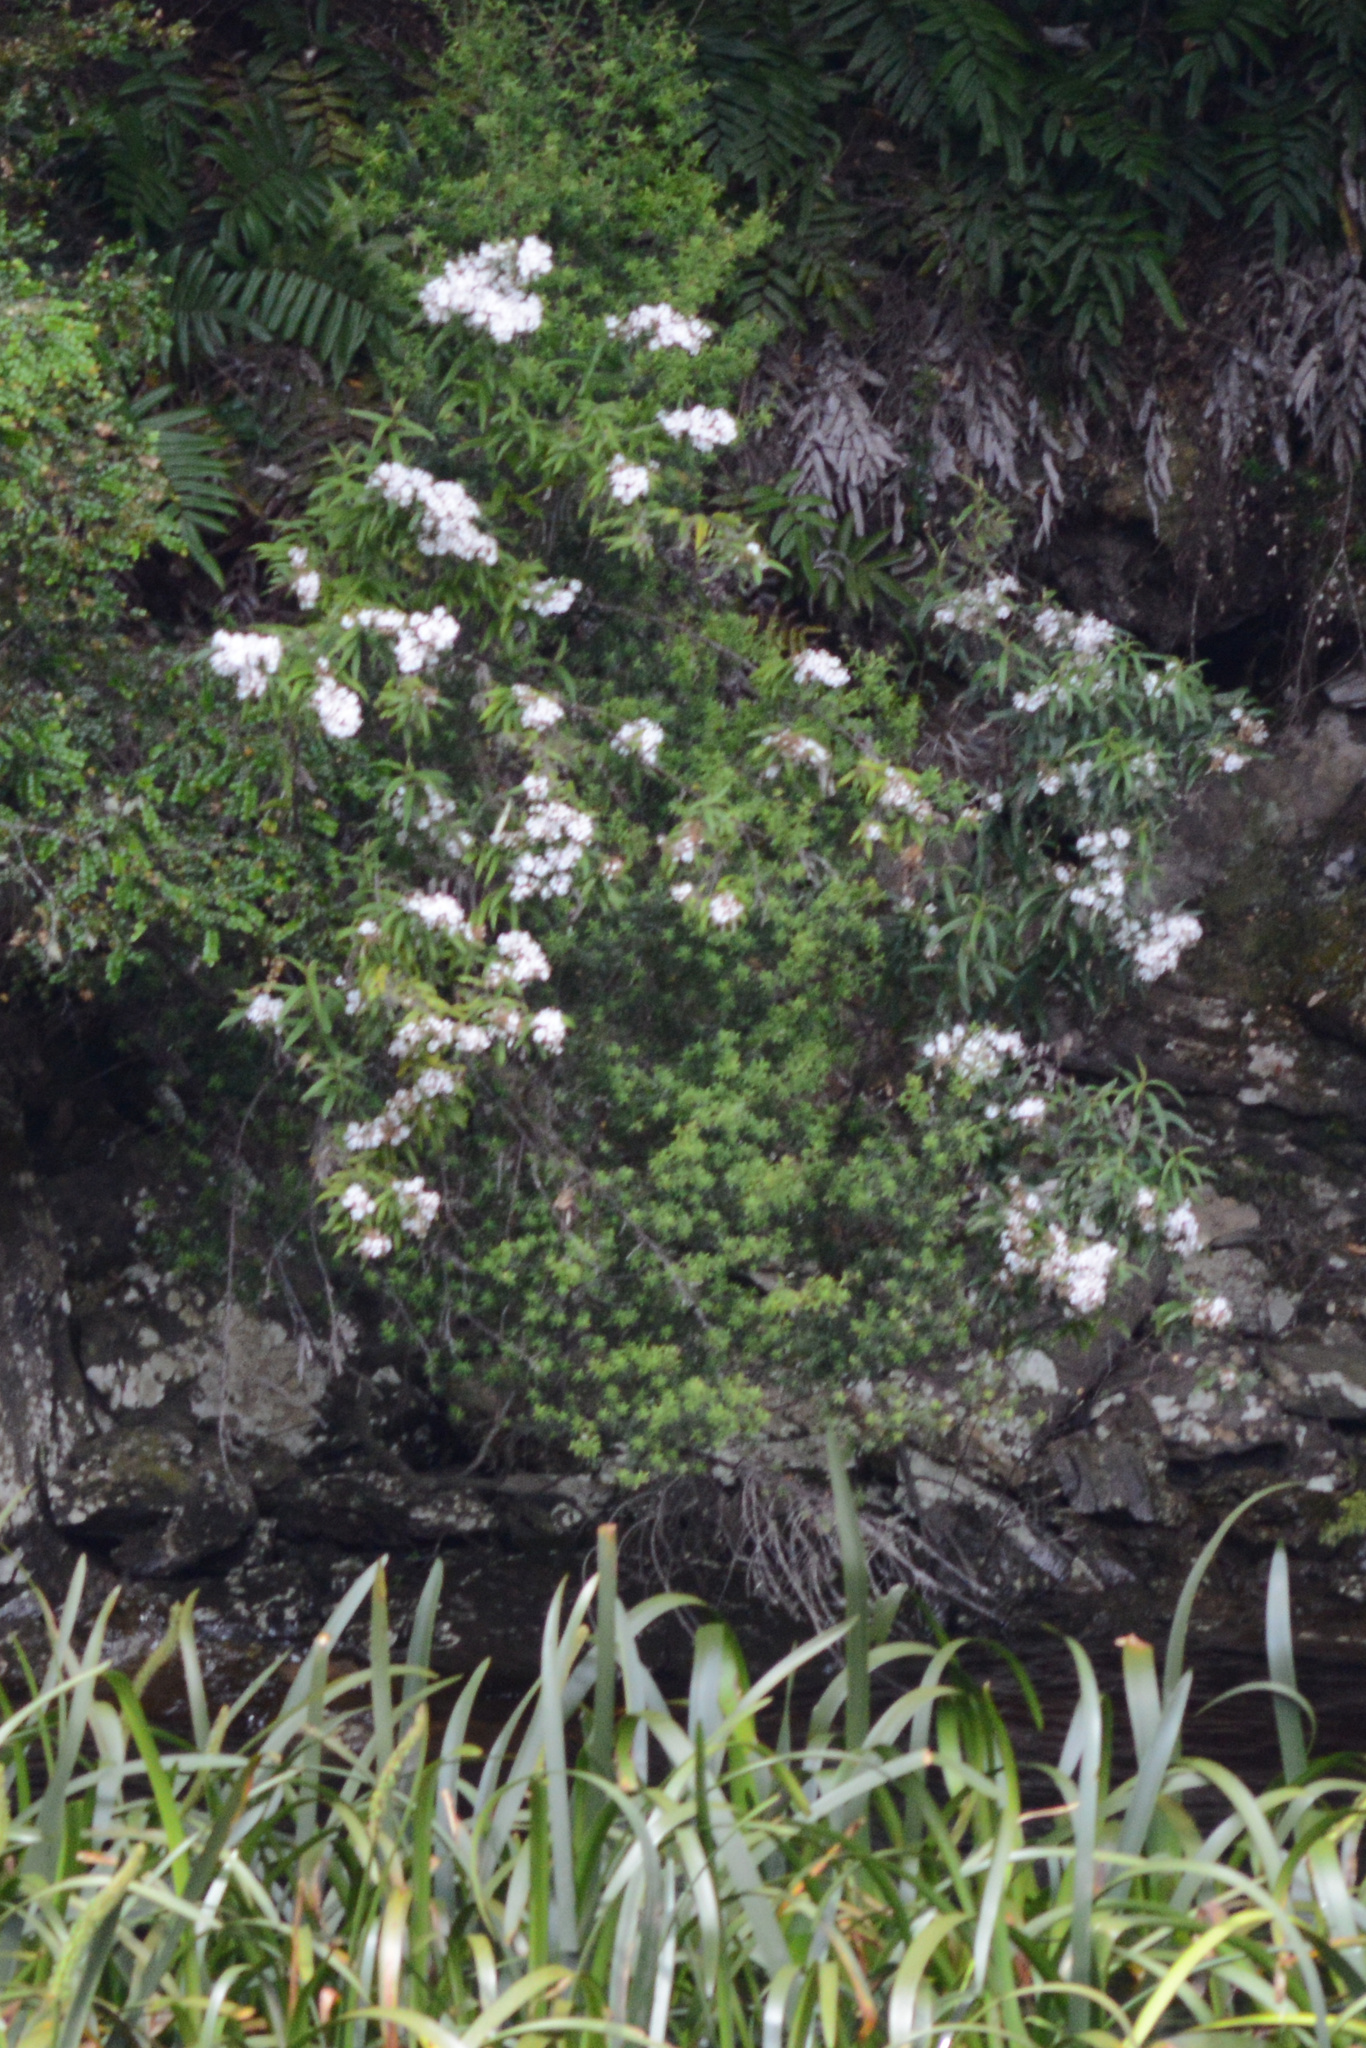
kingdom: Plantae
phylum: Tracheophyta
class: Magnoliopsida
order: Lamiales
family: Lamiaceae
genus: Prostanthera
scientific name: Prostanthera lasianthos
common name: Mountain-lilac
